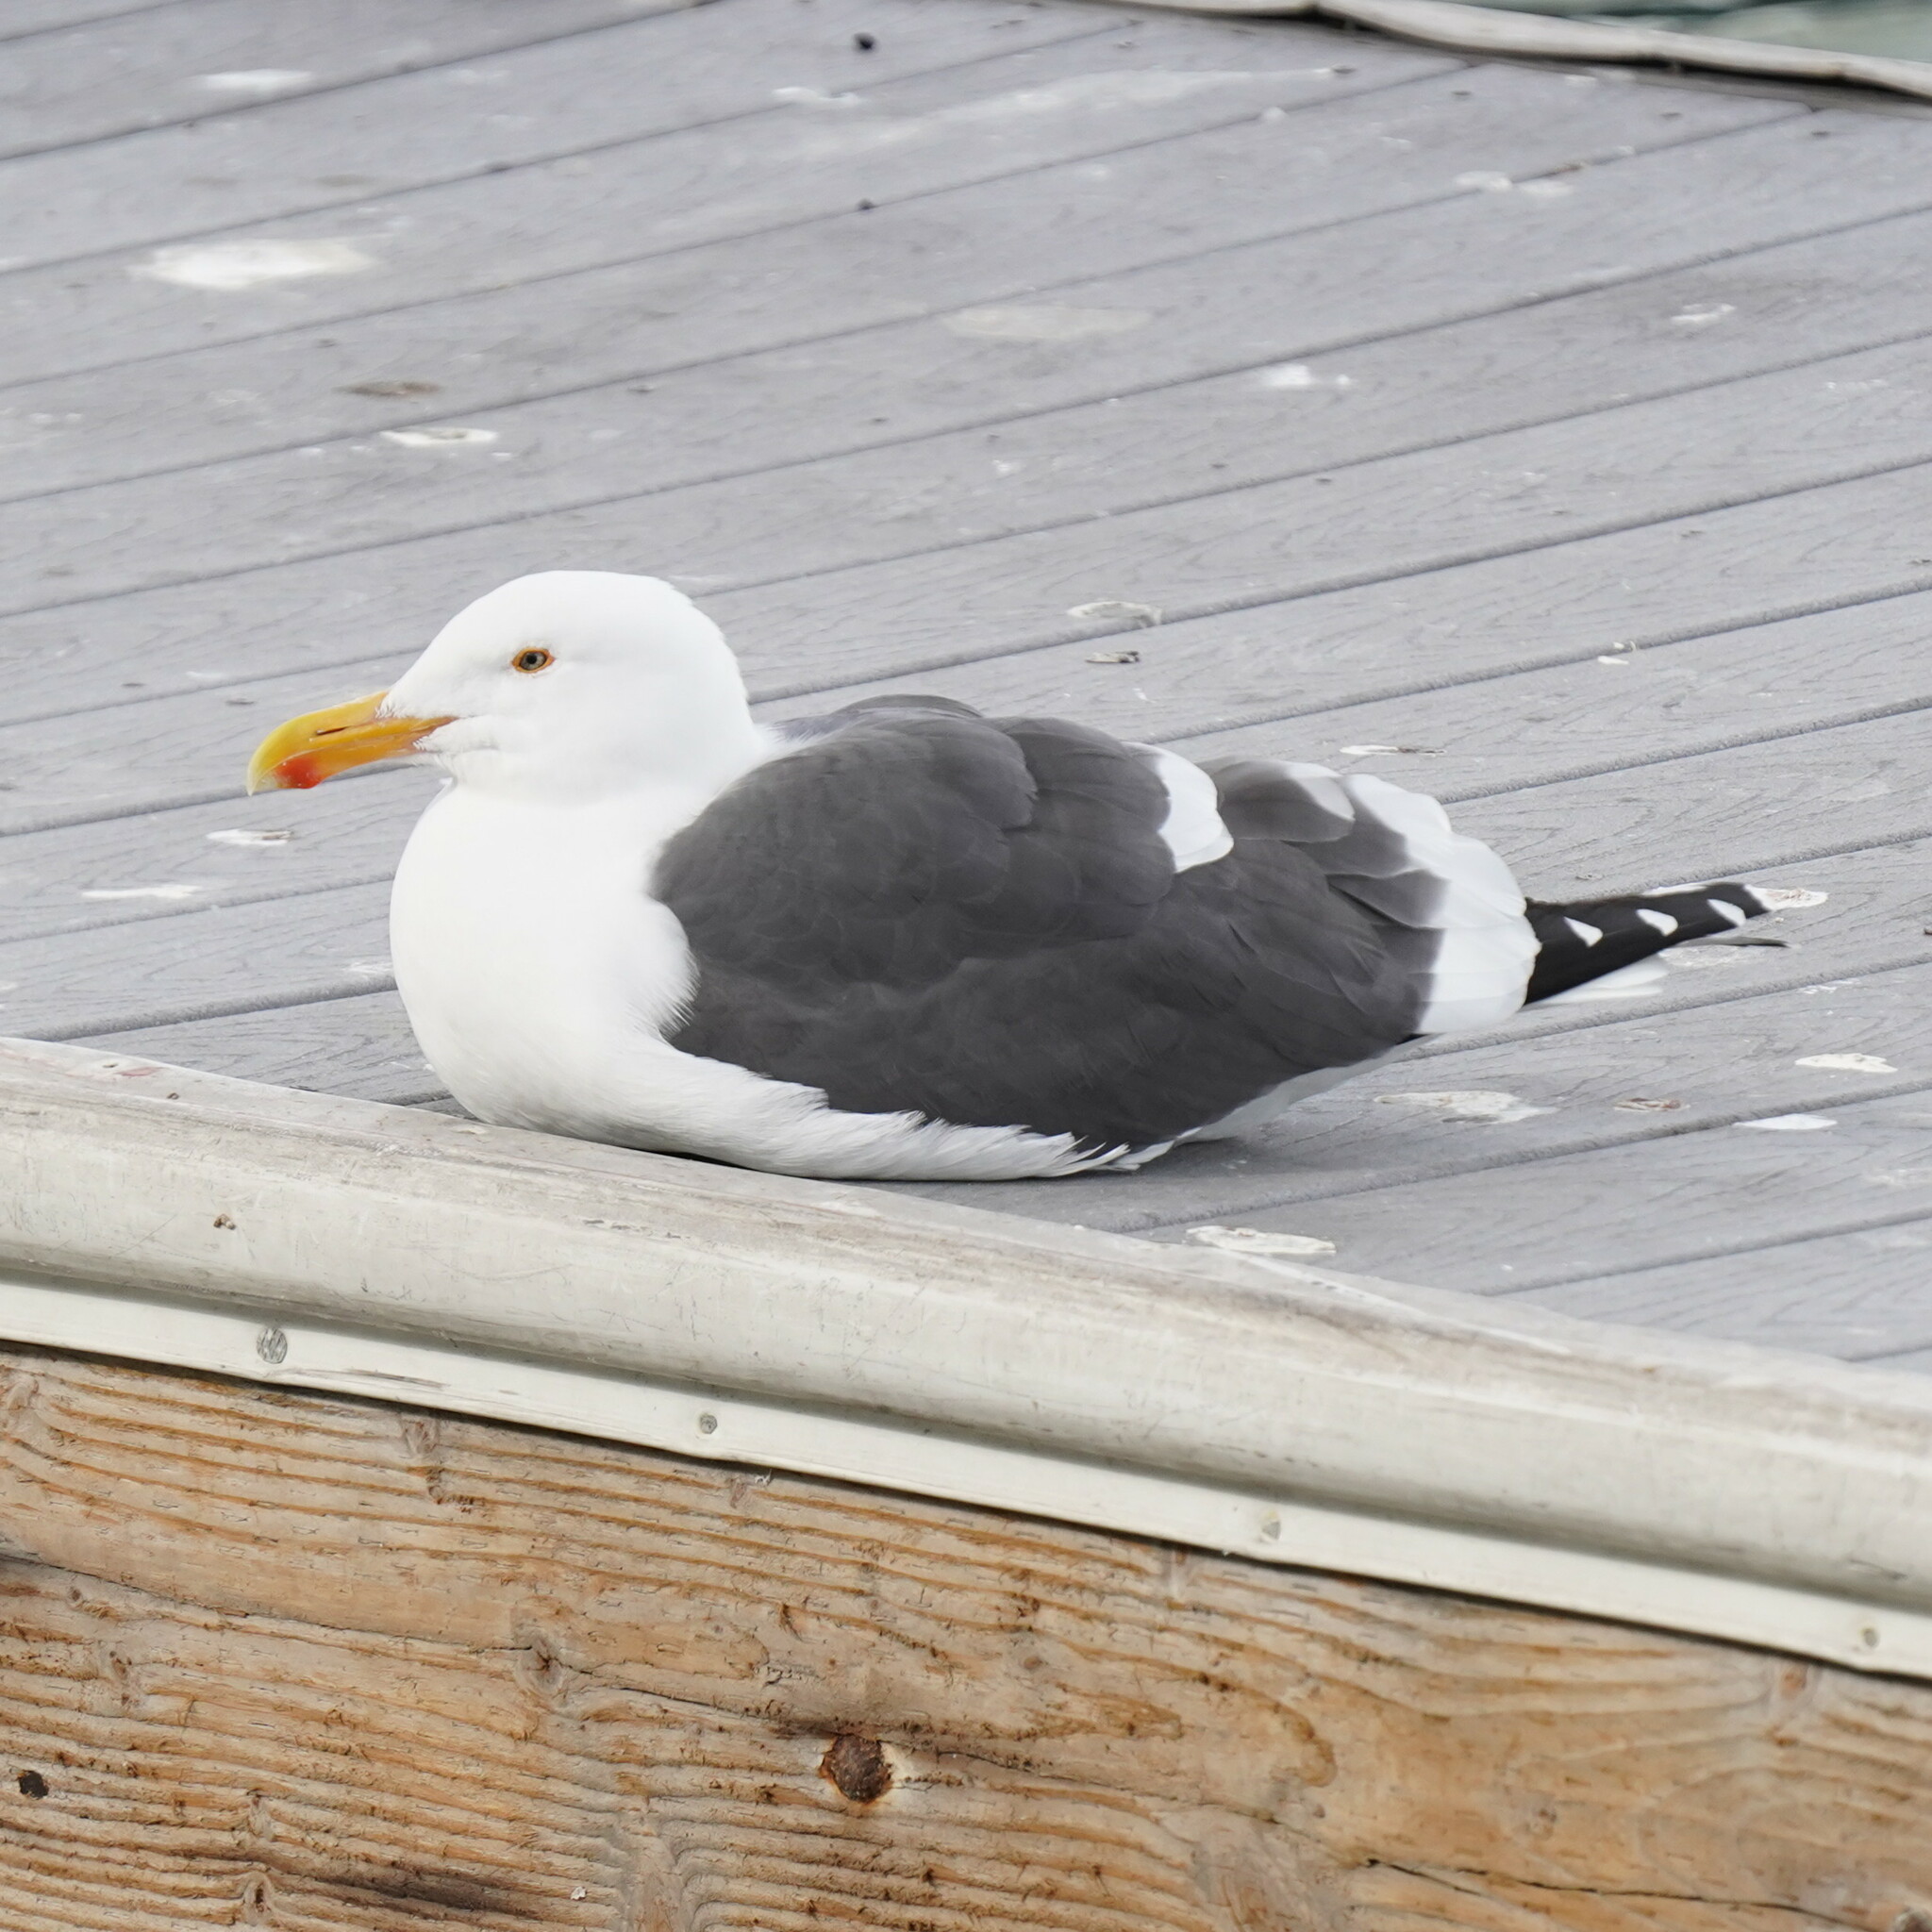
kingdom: Animalia
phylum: Chordata
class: Aves
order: Charadriiformes
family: Laridae
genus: Larus
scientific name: Larus occidentalis
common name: Western gull
